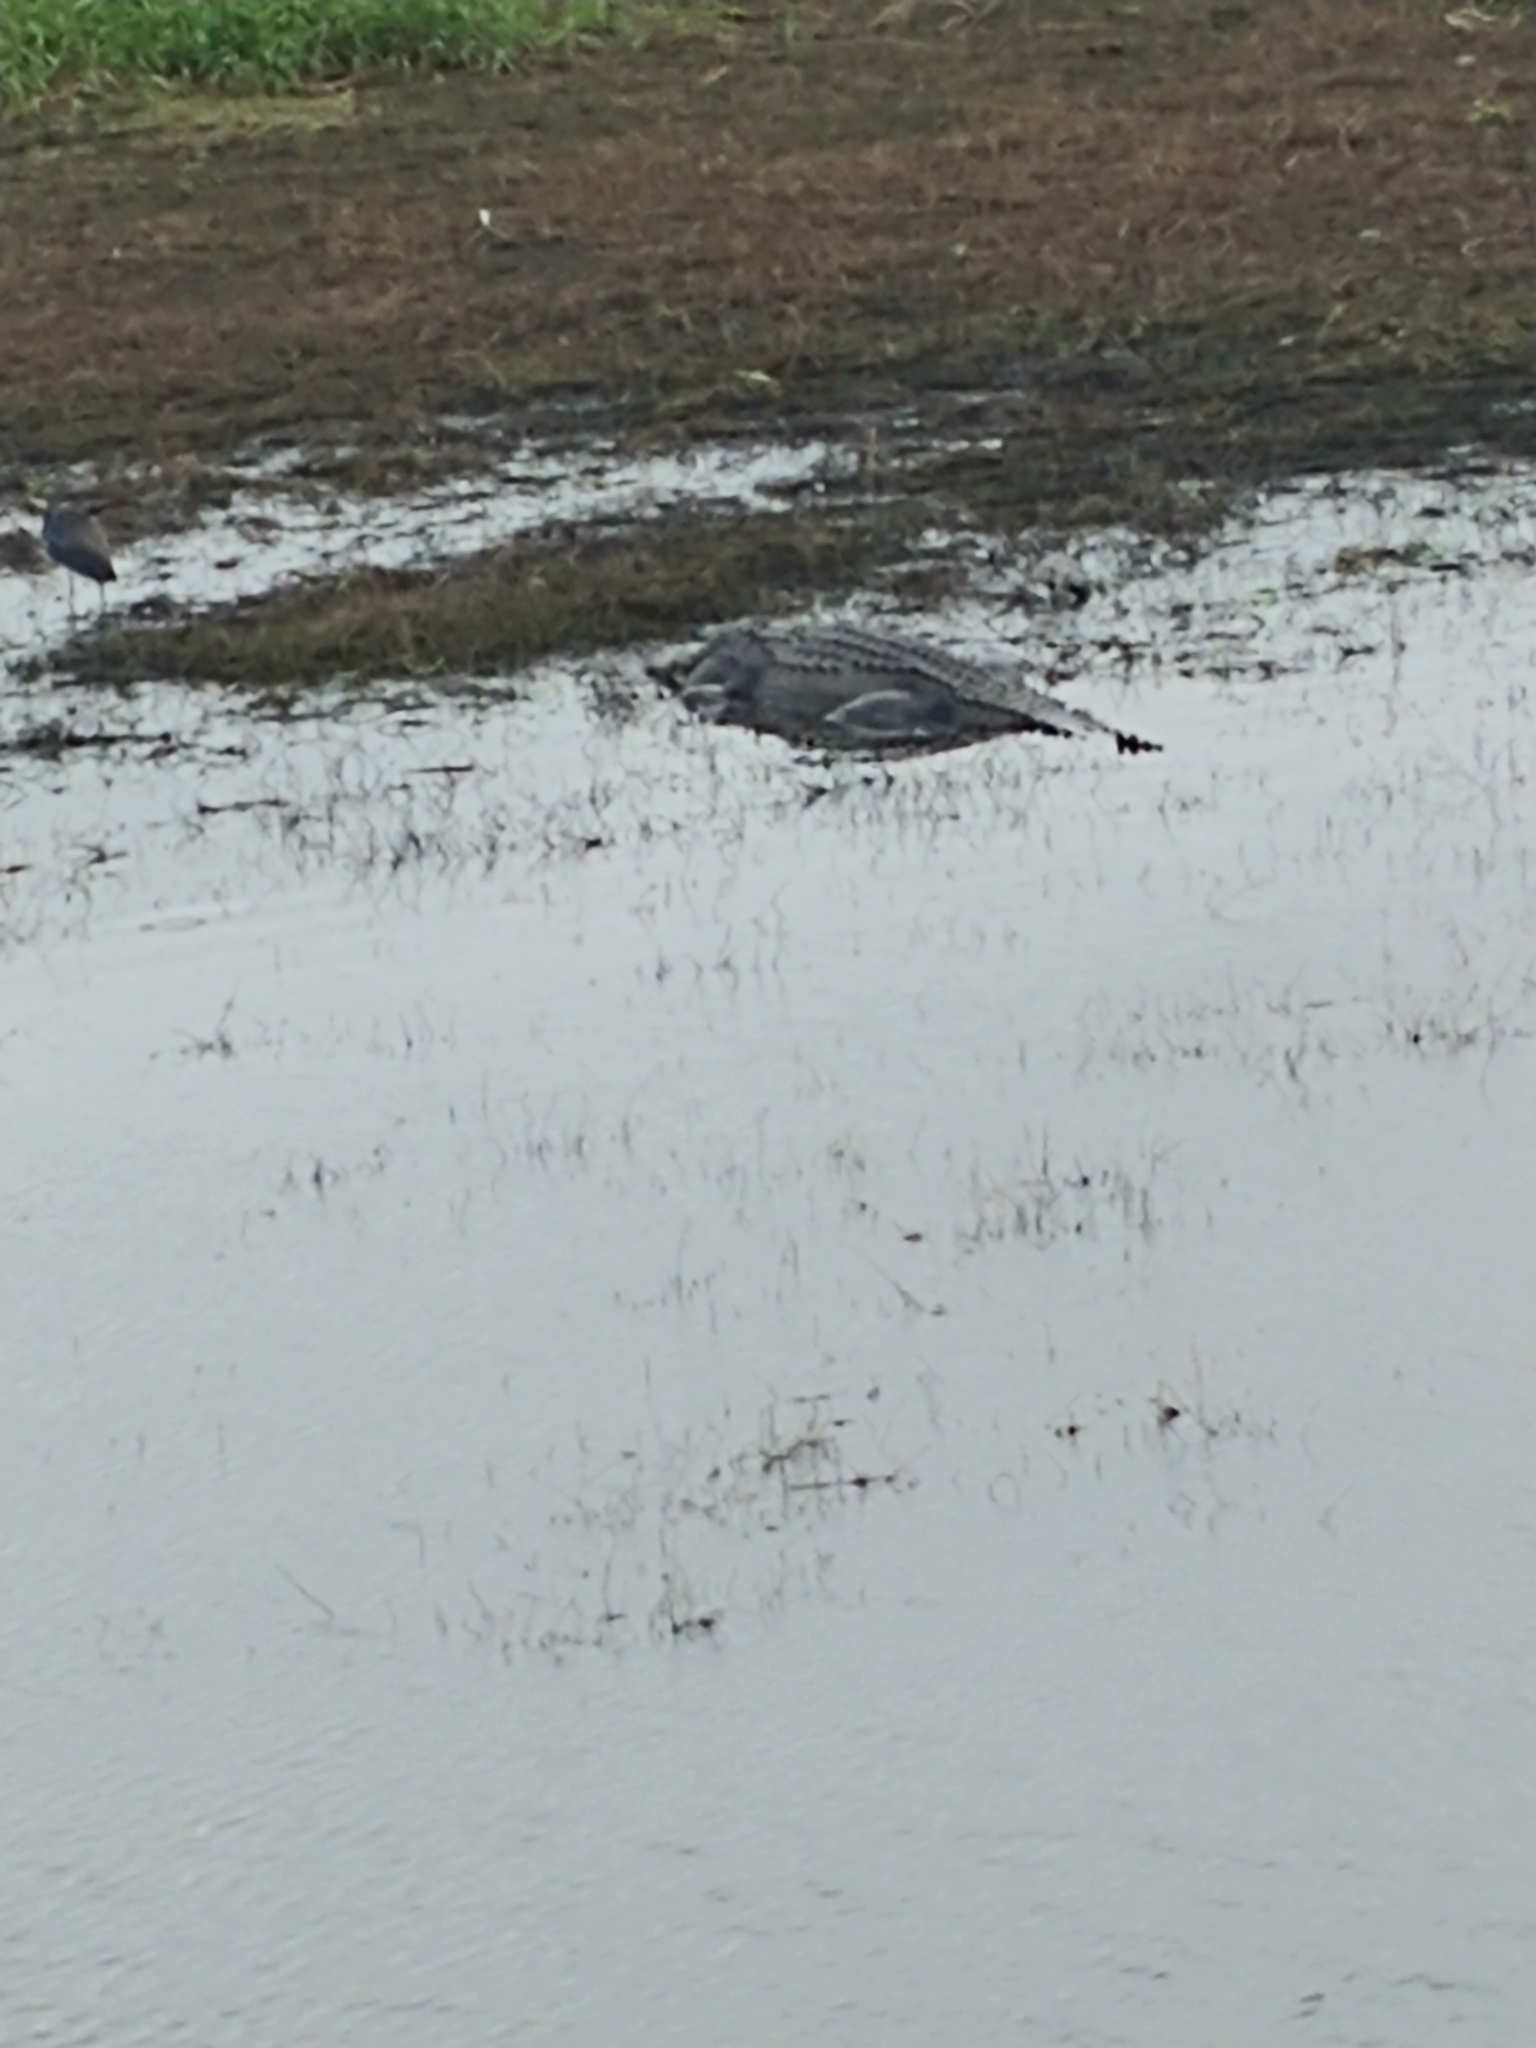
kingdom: Animalia
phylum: Chordata
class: Crocodylia
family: Alligatoridae
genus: Alligator
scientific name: Alligator mississippiensis
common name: American alligator
